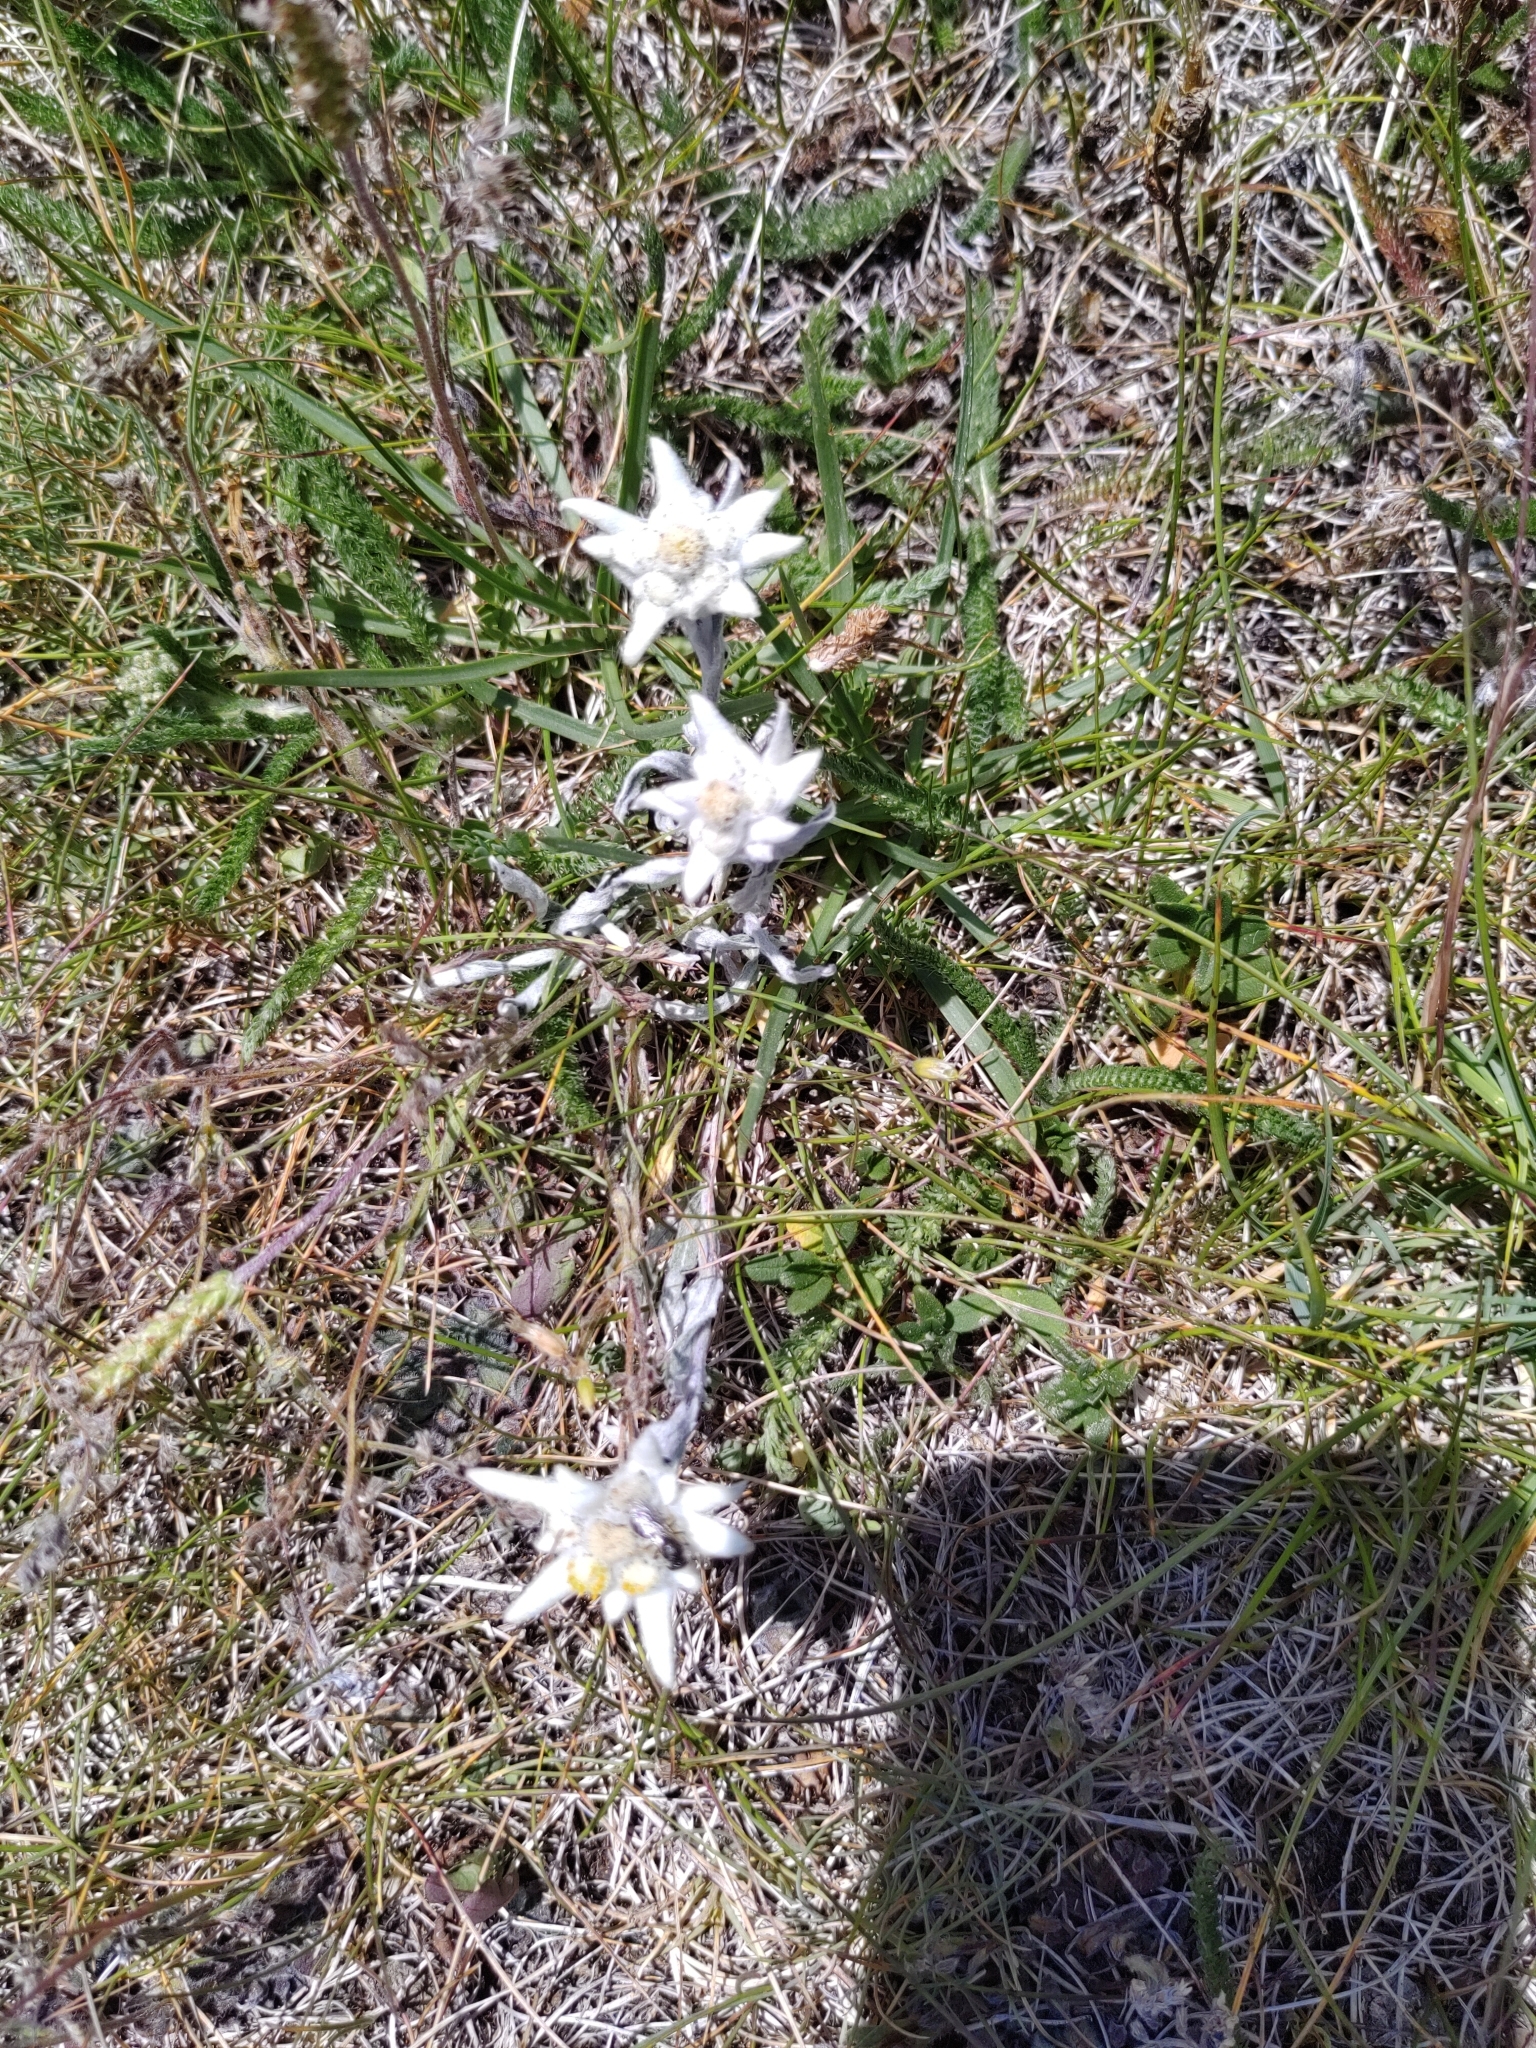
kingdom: Plantae
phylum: Tracheophyta
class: Magnoliopsida
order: Asterales
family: Asteraceae
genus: Leontopodium
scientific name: Leontopodium nivale
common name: Edelweiss
